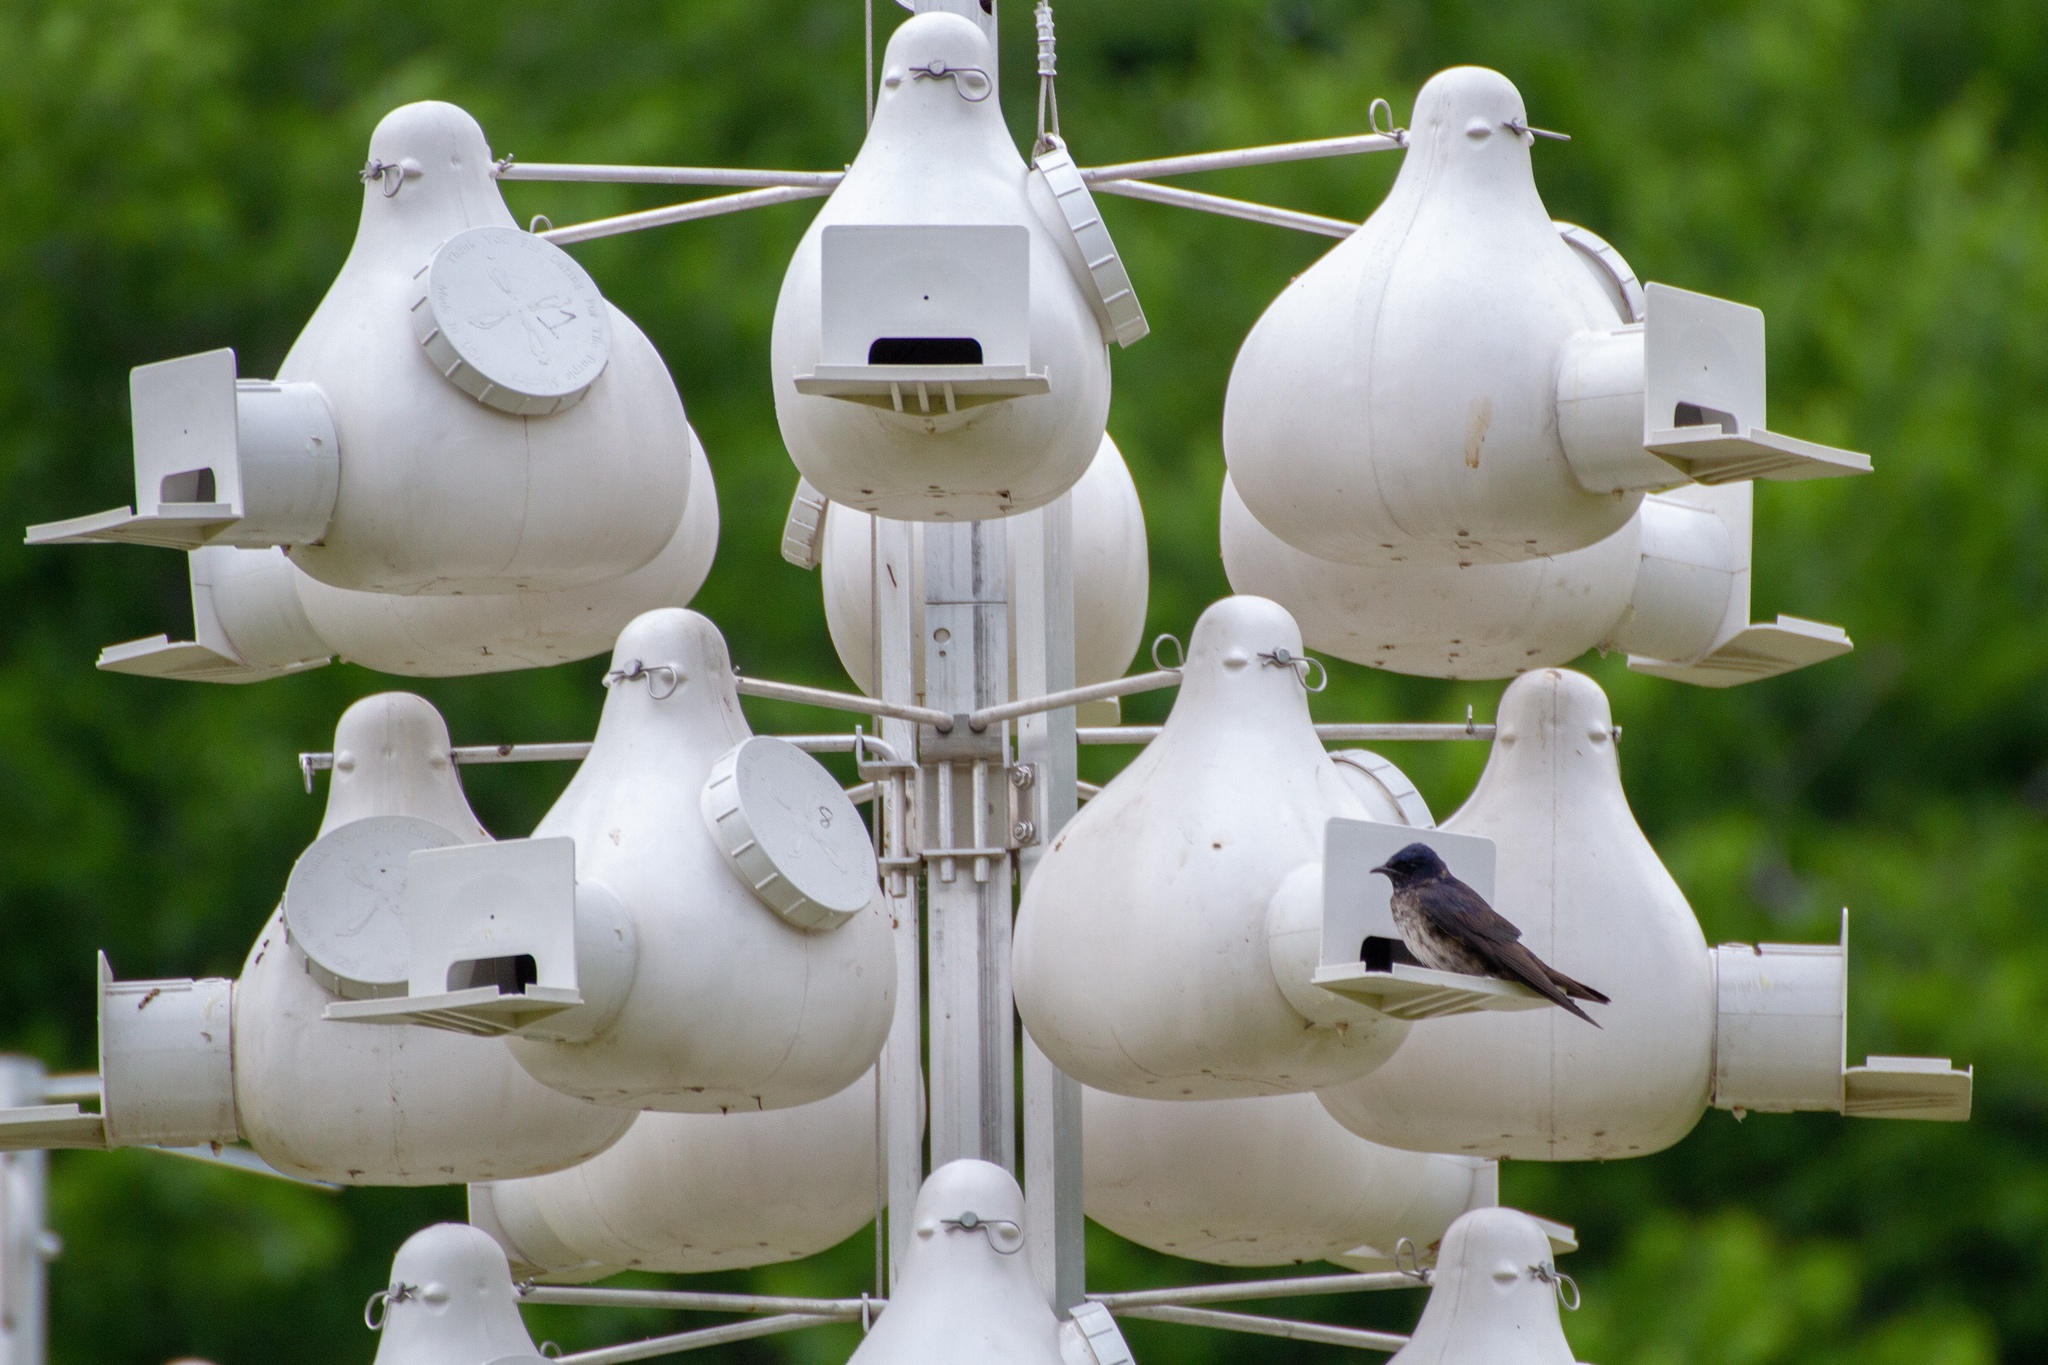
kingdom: Animalia
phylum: Chordata
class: Aves
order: Passeriformes
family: Hirundinidae
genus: Progne
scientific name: Progne subis
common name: Purple martin
